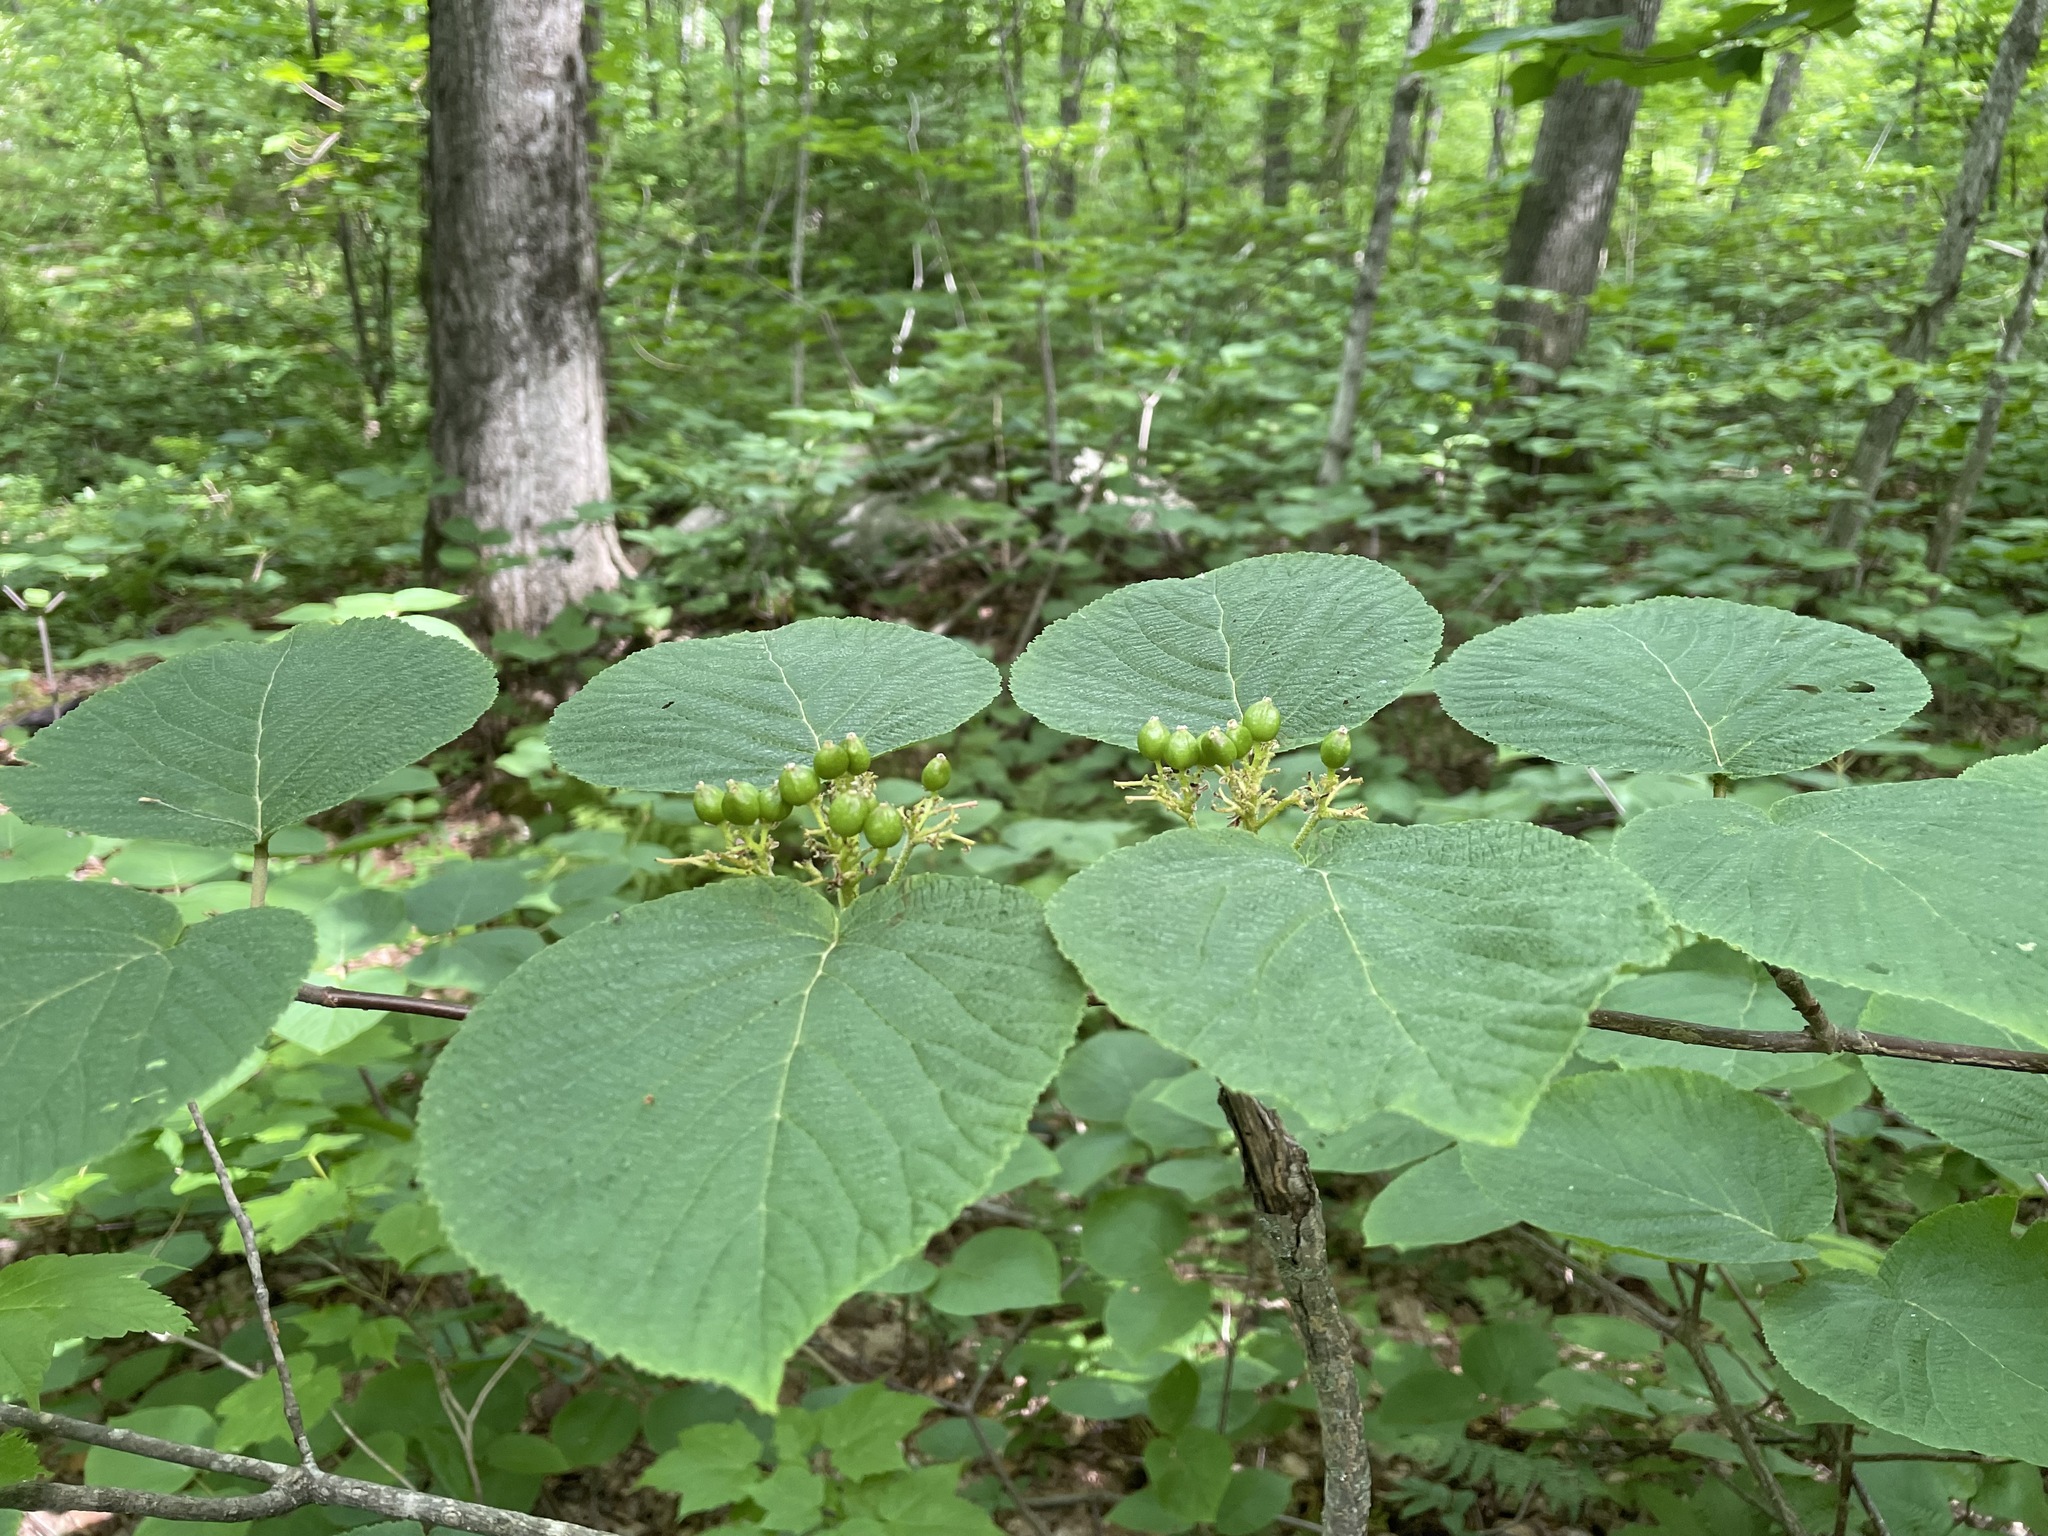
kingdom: Plantae
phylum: Tracheophyta
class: Magnoliopsida
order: Dipsacales
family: Viburnaceae
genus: Viburnum
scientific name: Viburnum lantanoides
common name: Hobblebush
